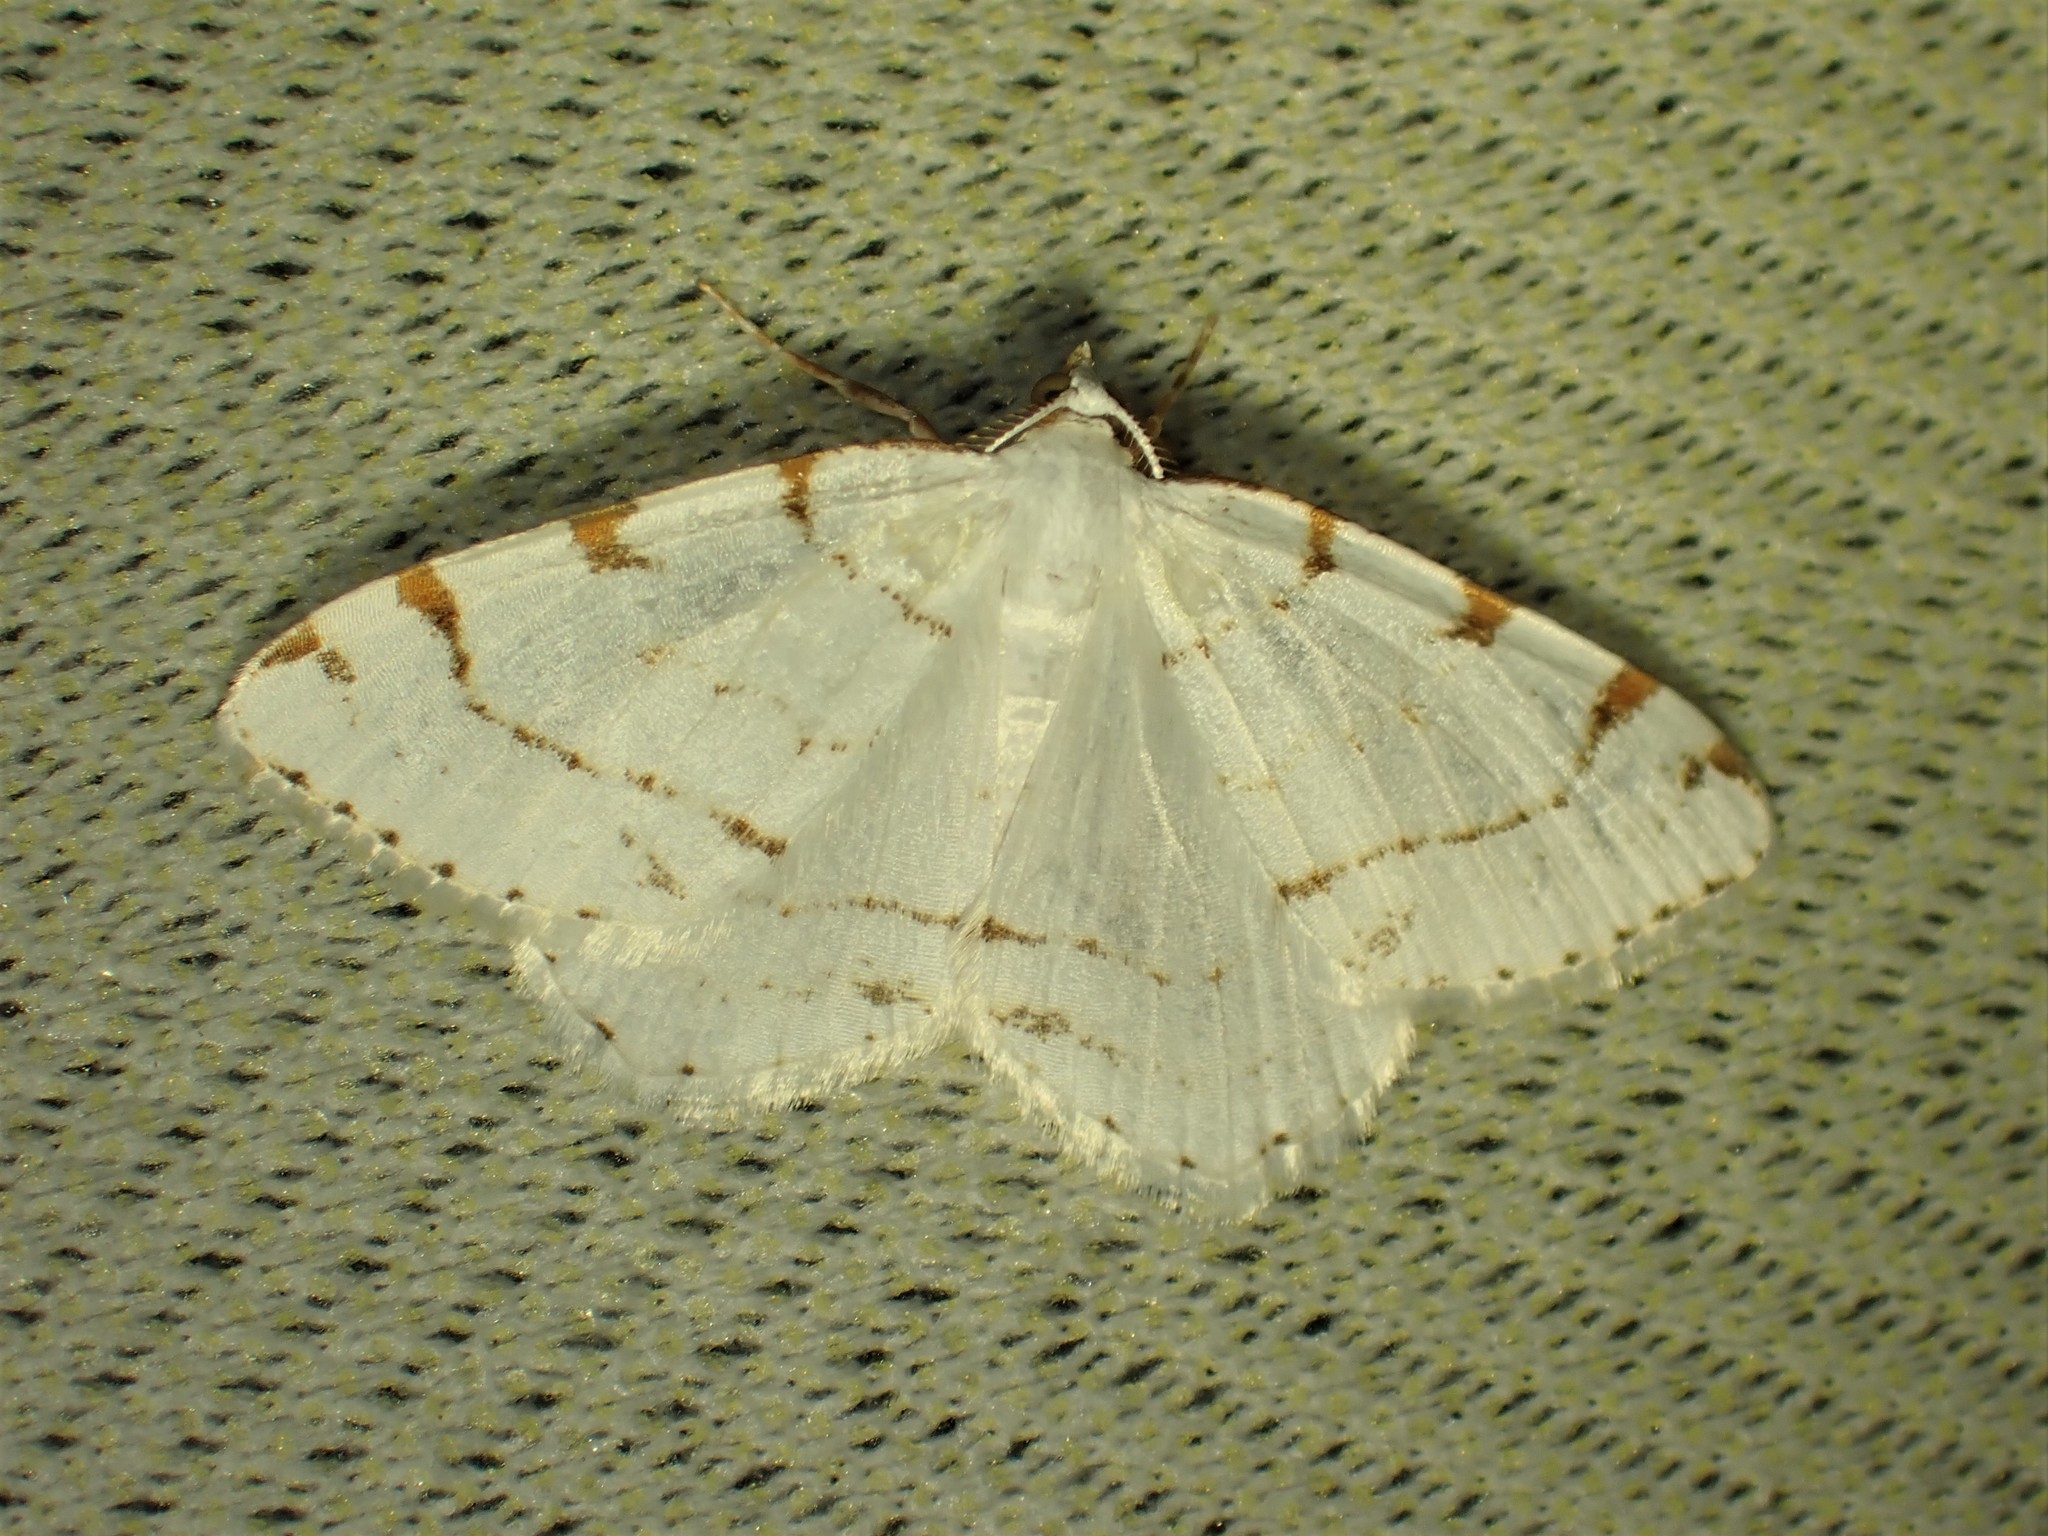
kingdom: Animalia
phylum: Arthropoda
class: Insecta
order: Lepidoptera
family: Geometridae
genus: Macaria
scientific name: Macaria pustularia
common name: Lesser maple spanworm moth
